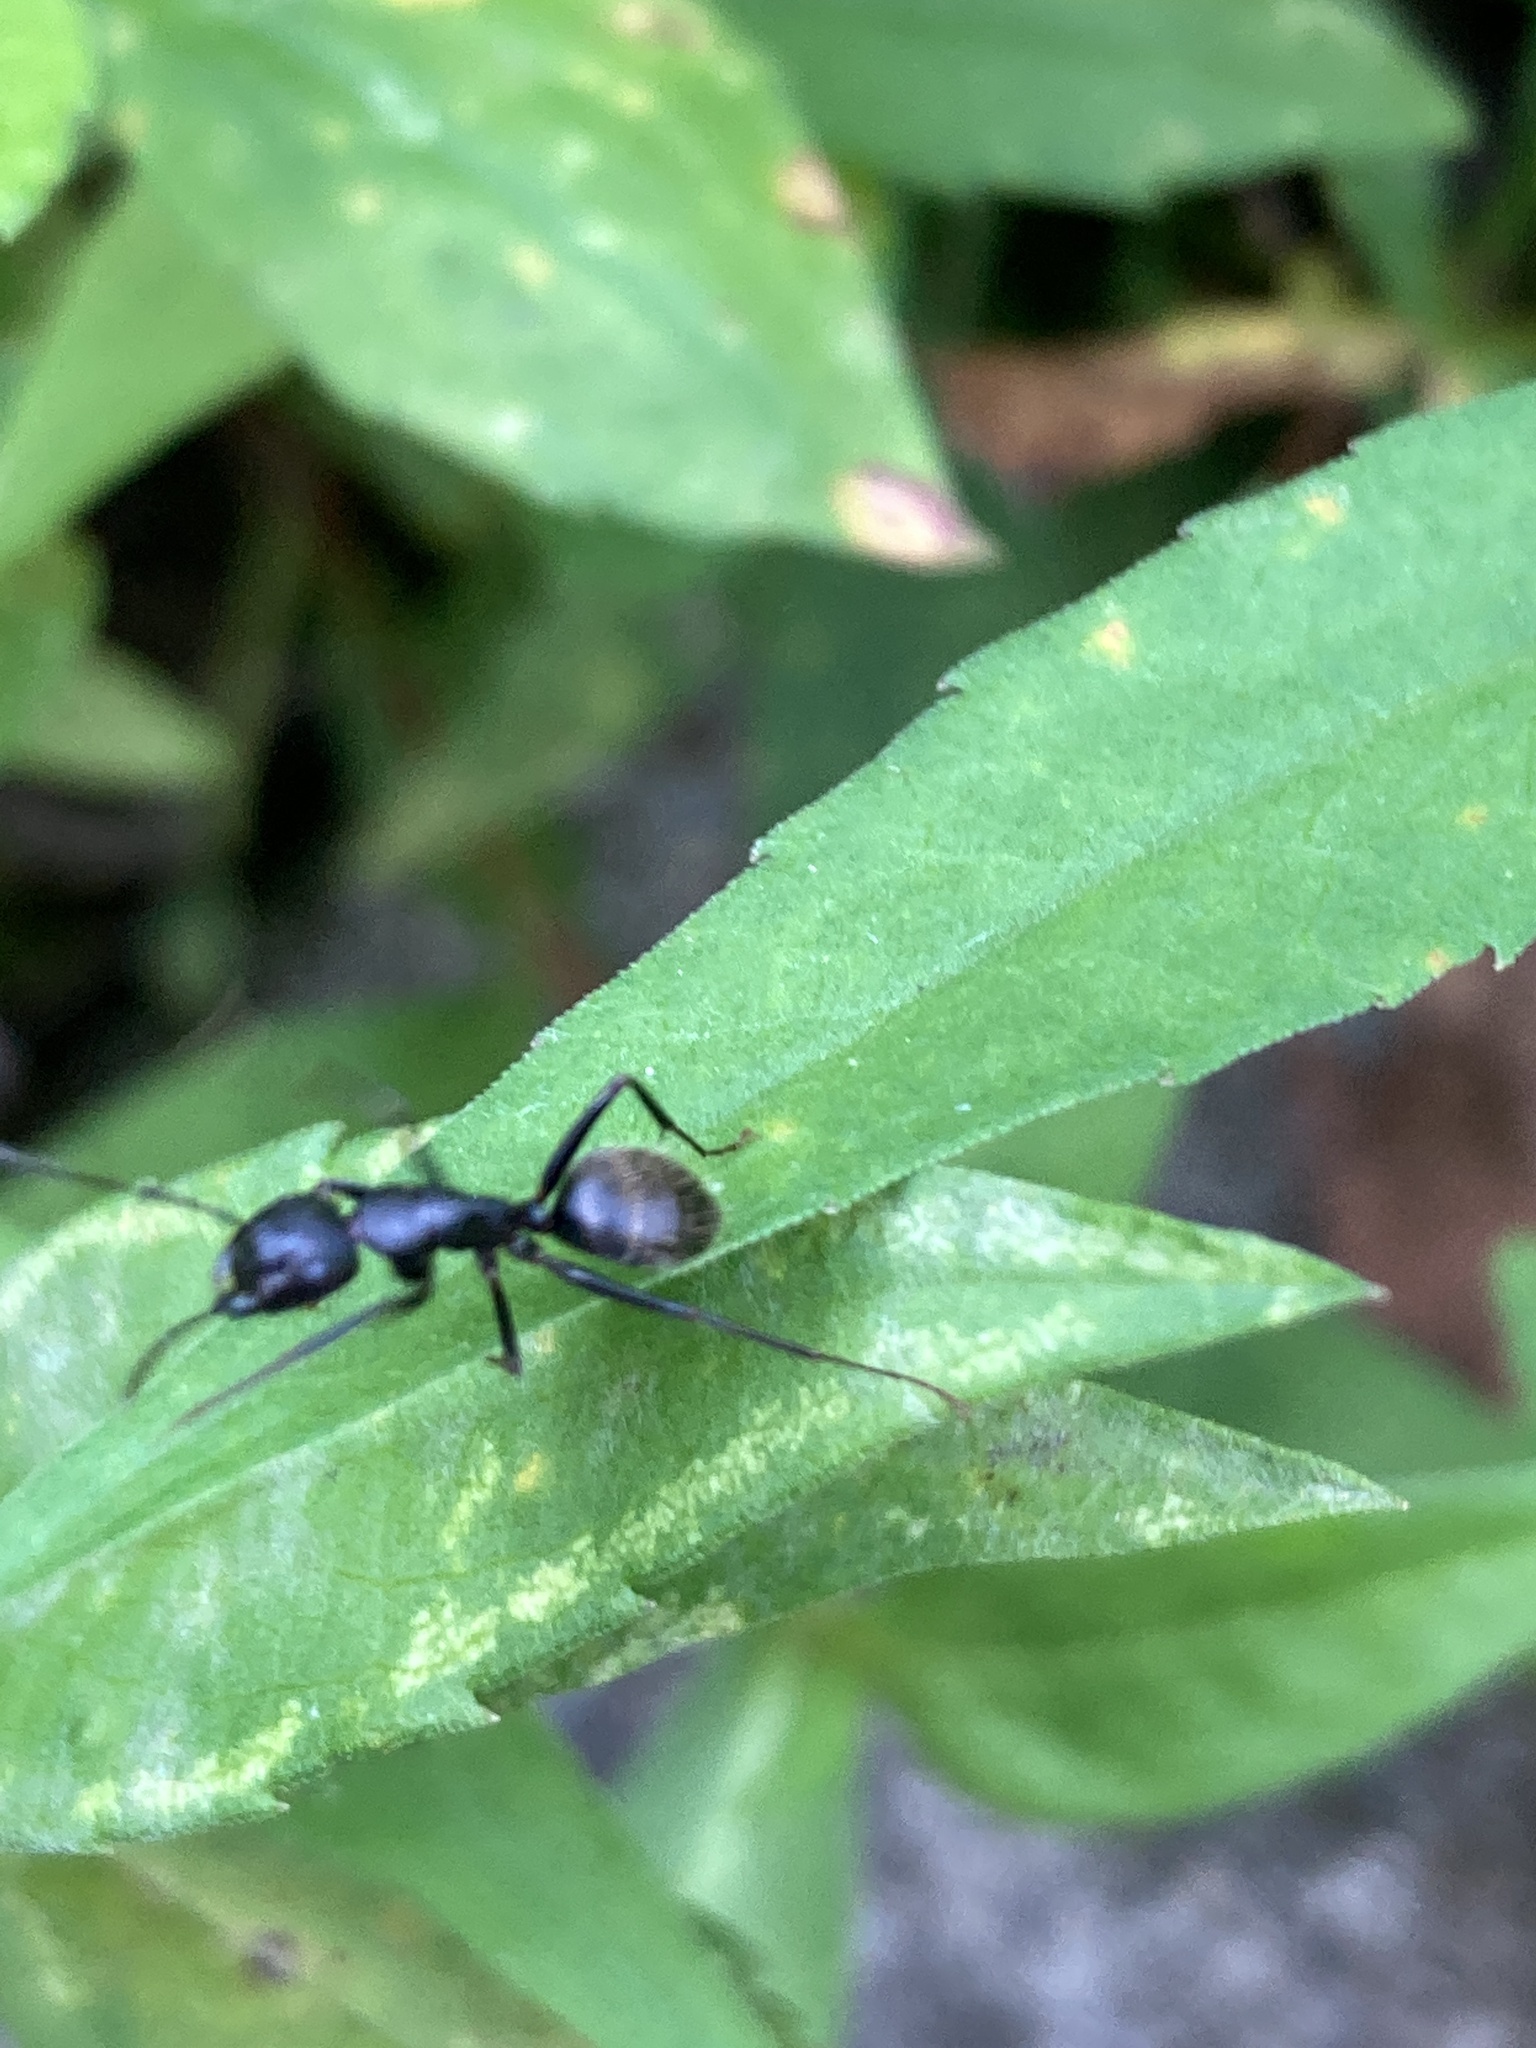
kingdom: Animalia
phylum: Arthropoda
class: Insecta
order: Hymenoptera
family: Formicidae
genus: Camponotus
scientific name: Camponotus pennsylvanicus
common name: Black carpenter ant
